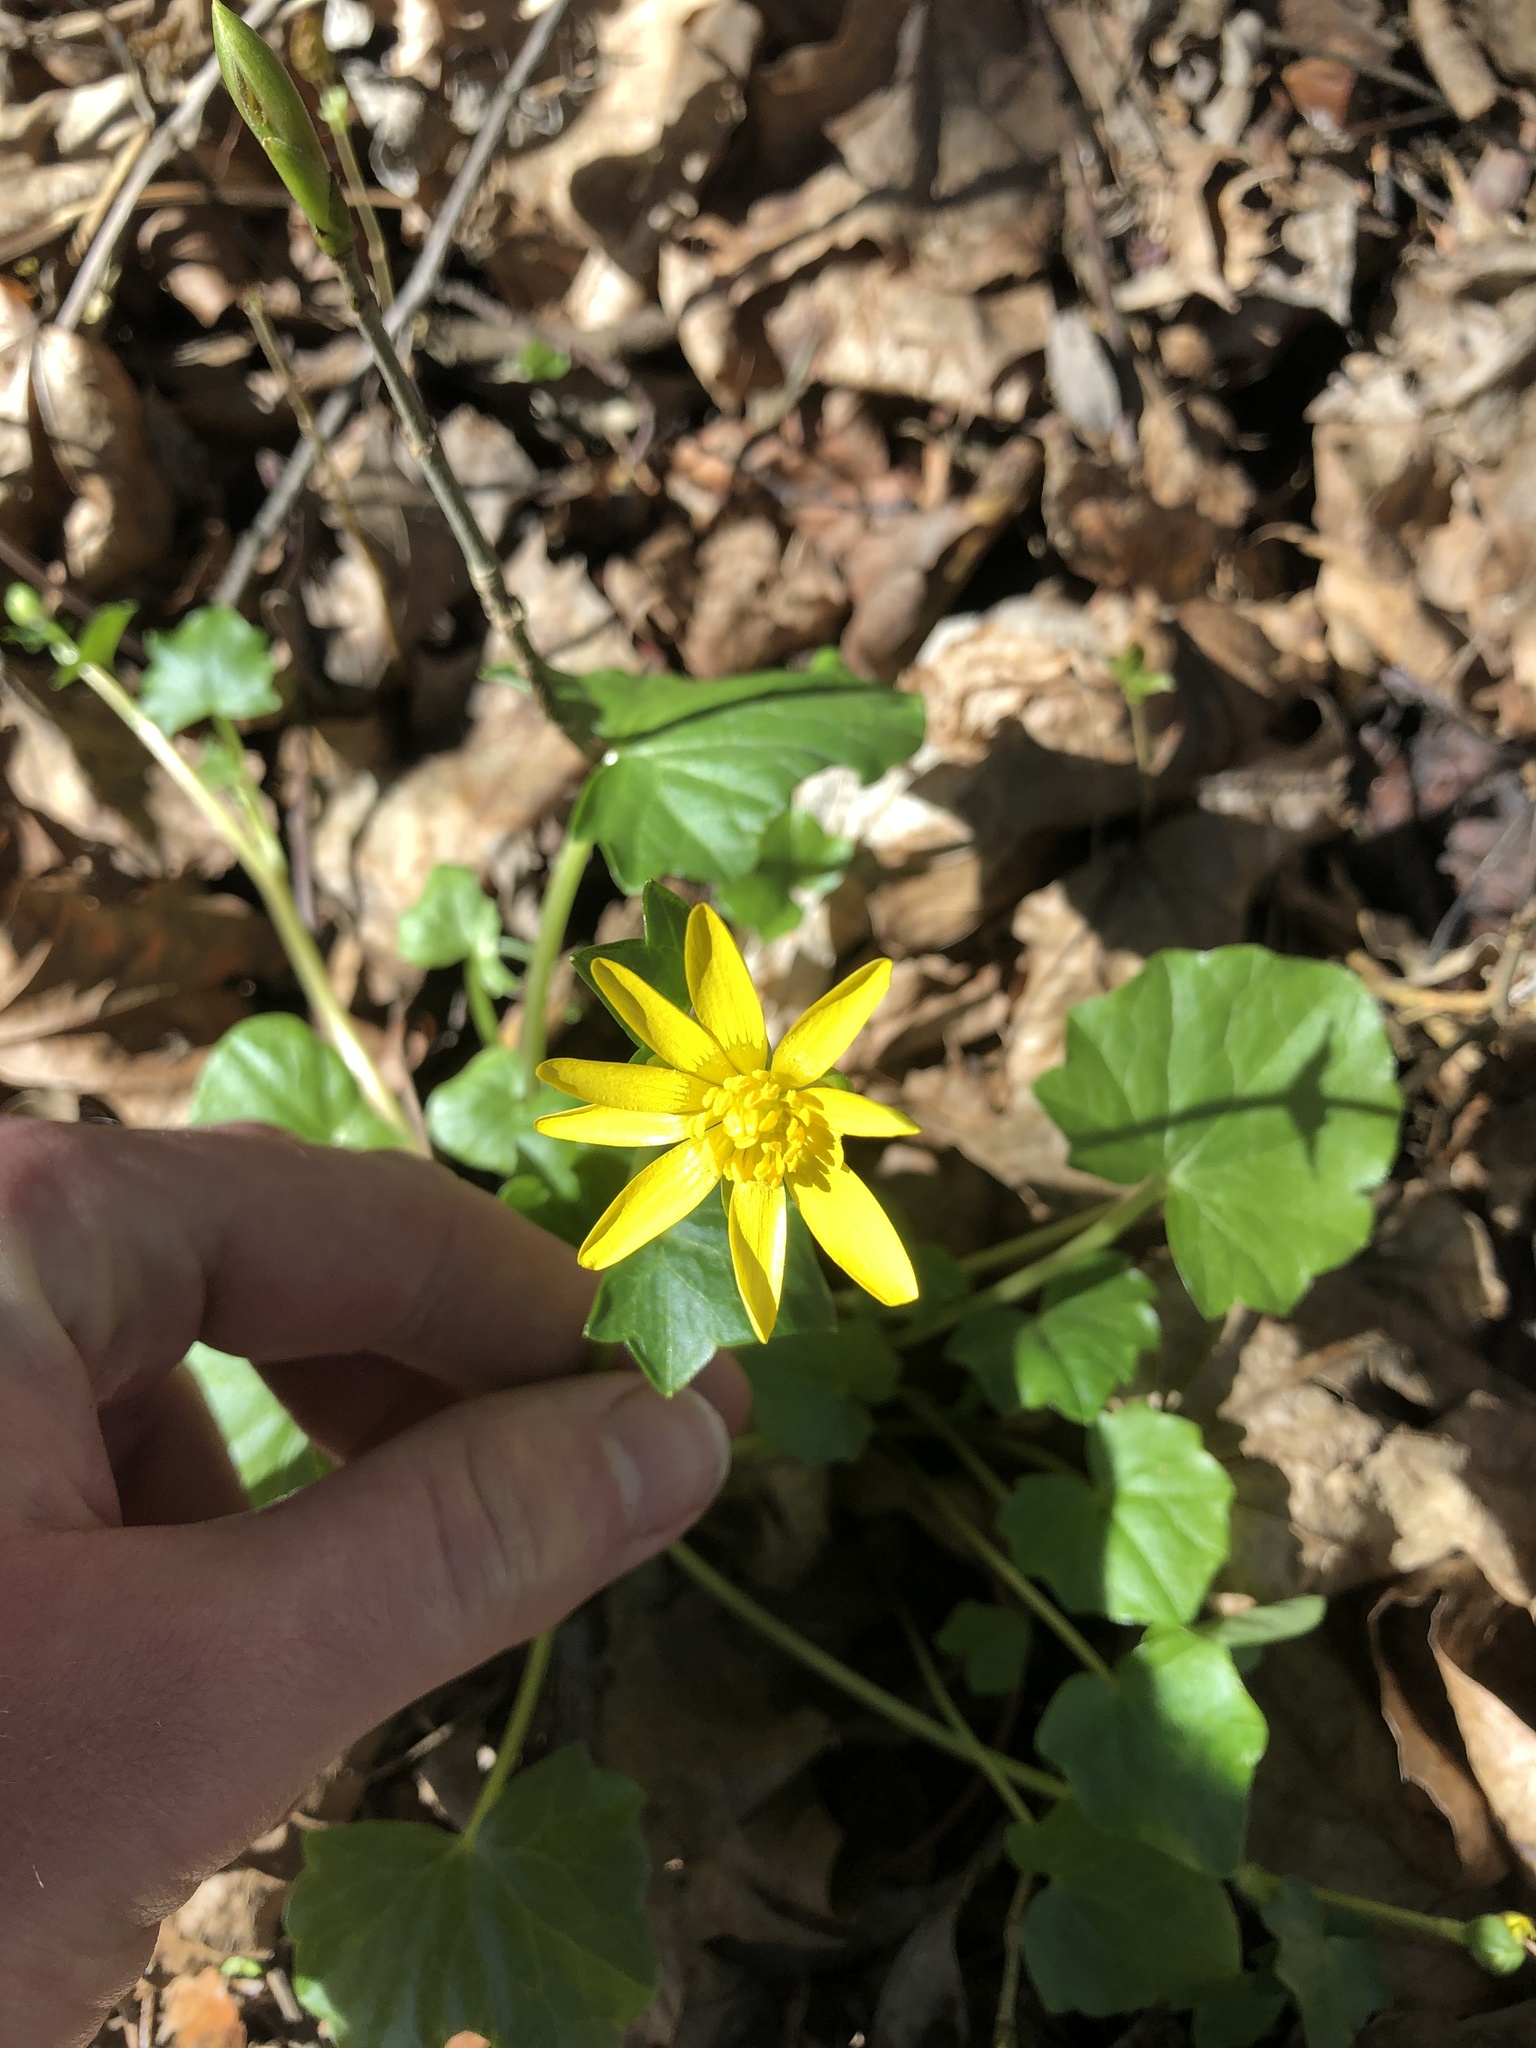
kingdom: Plantae
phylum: Tracheophyta
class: Magnoliopsida
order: Ranunculales
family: Ranunculaceae
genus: Ficaria
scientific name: Ficaria verna
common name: Lesser celandine
